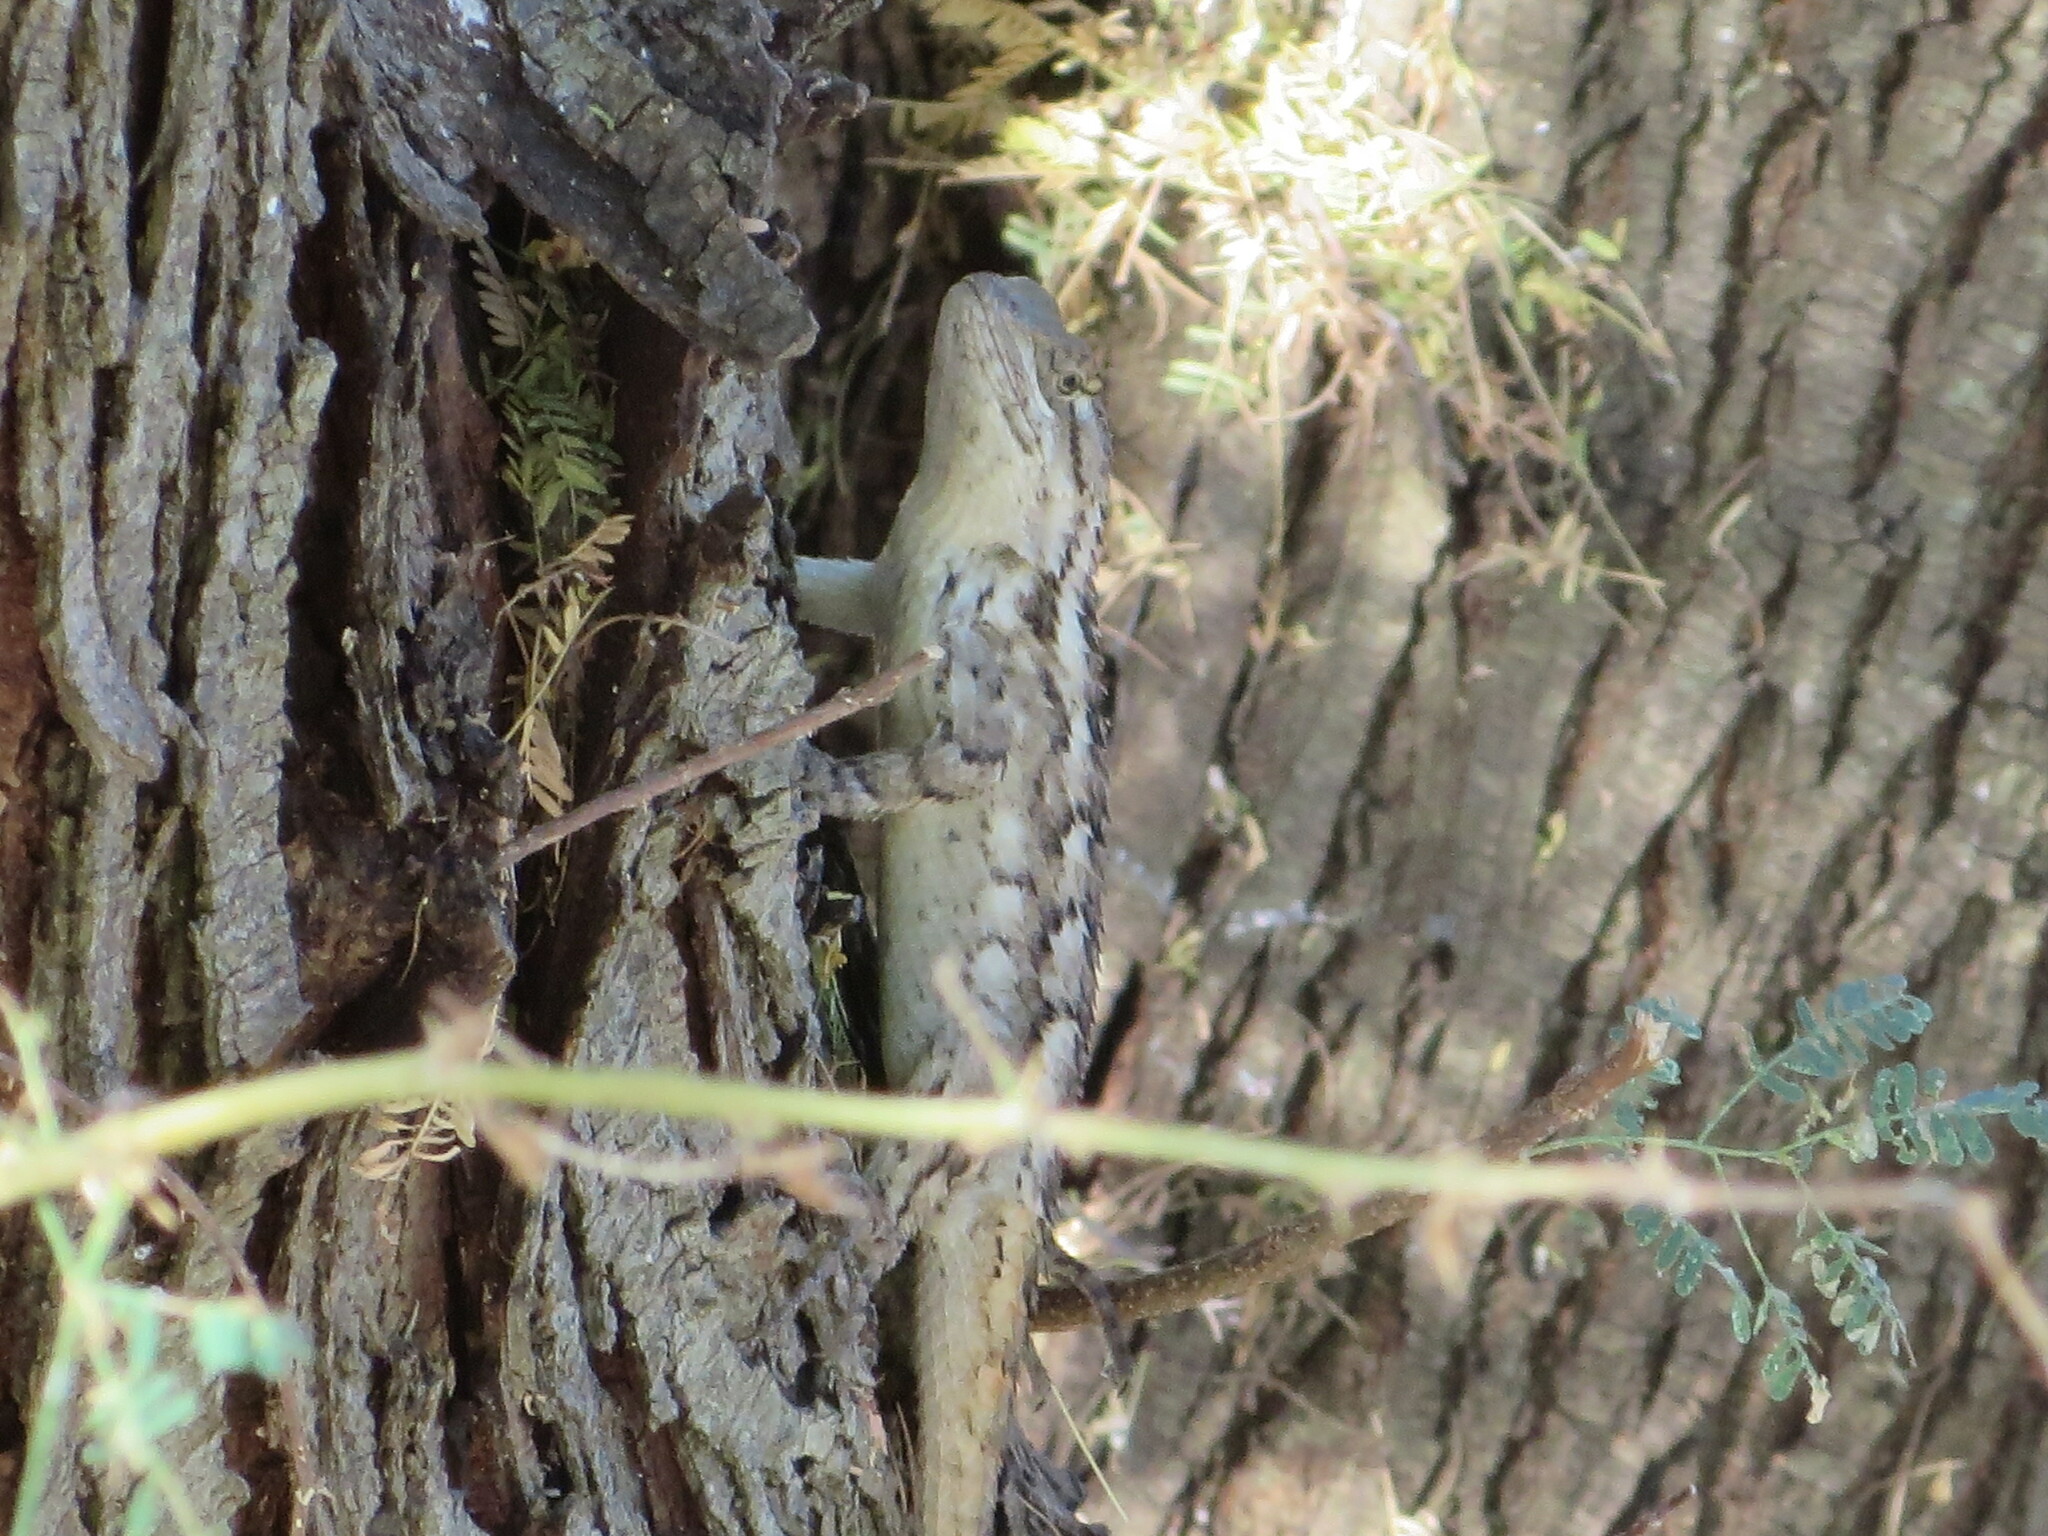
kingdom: Animalia
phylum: Chordata
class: Squamata
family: Phrynosomatidae
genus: Sceloporus
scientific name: Sceloporus olivaceus
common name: Texas spiny lizard
